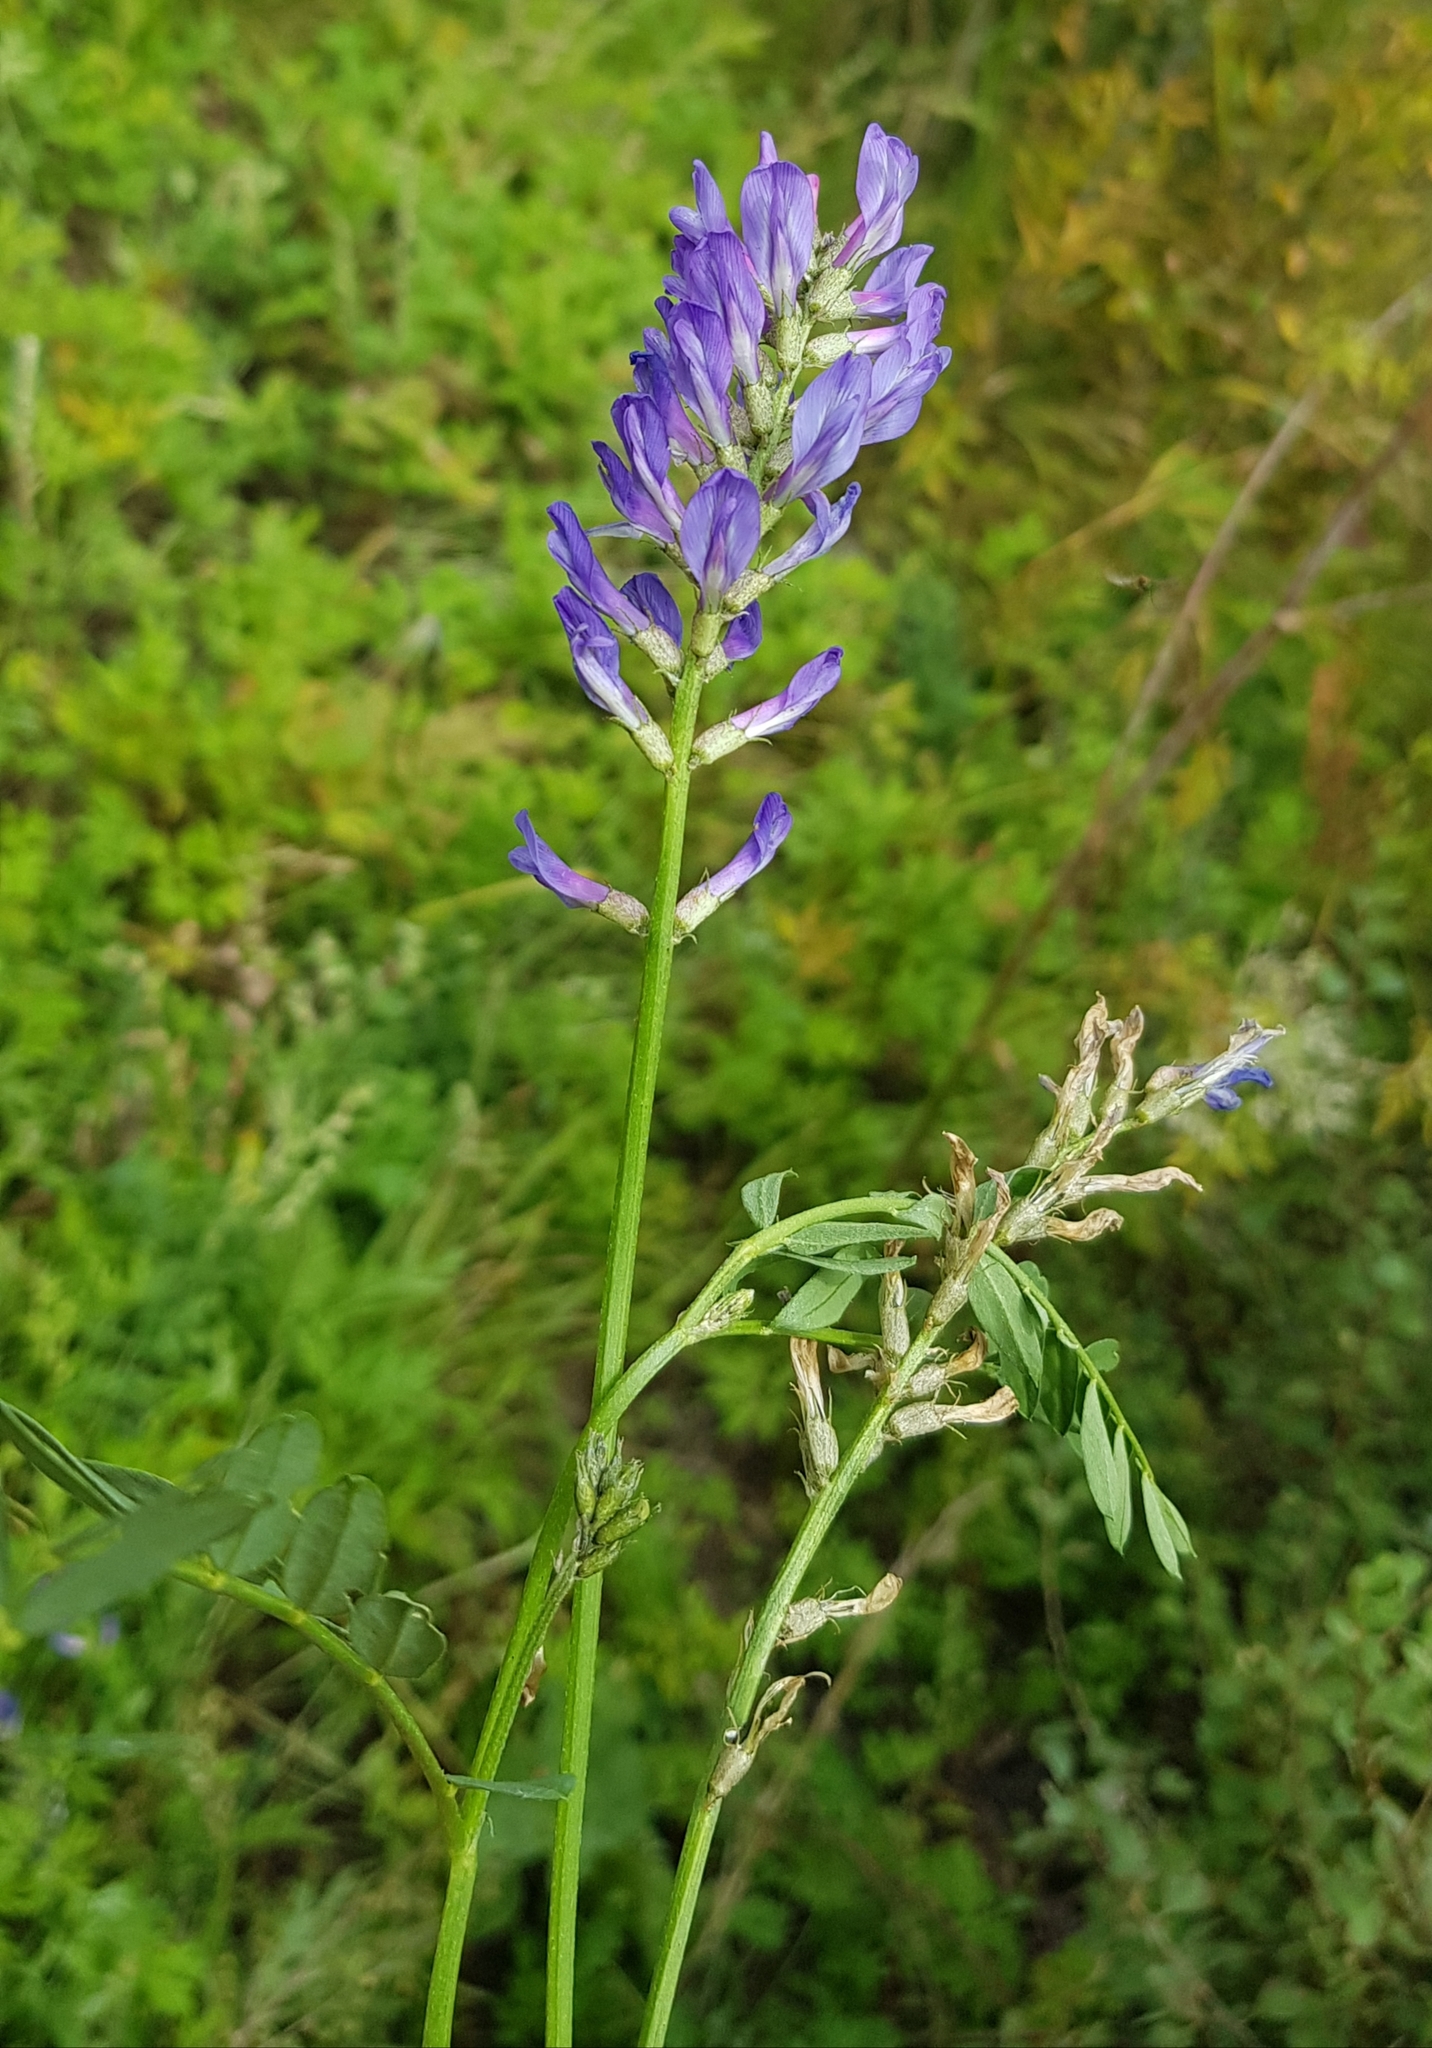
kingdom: Plantae
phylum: Tracheophyta
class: Magnoliopsida
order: Fabales
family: Fabaceae
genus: Astragalus
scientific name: Astragalus laxmannii
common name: Laxmann's milk-vetch
